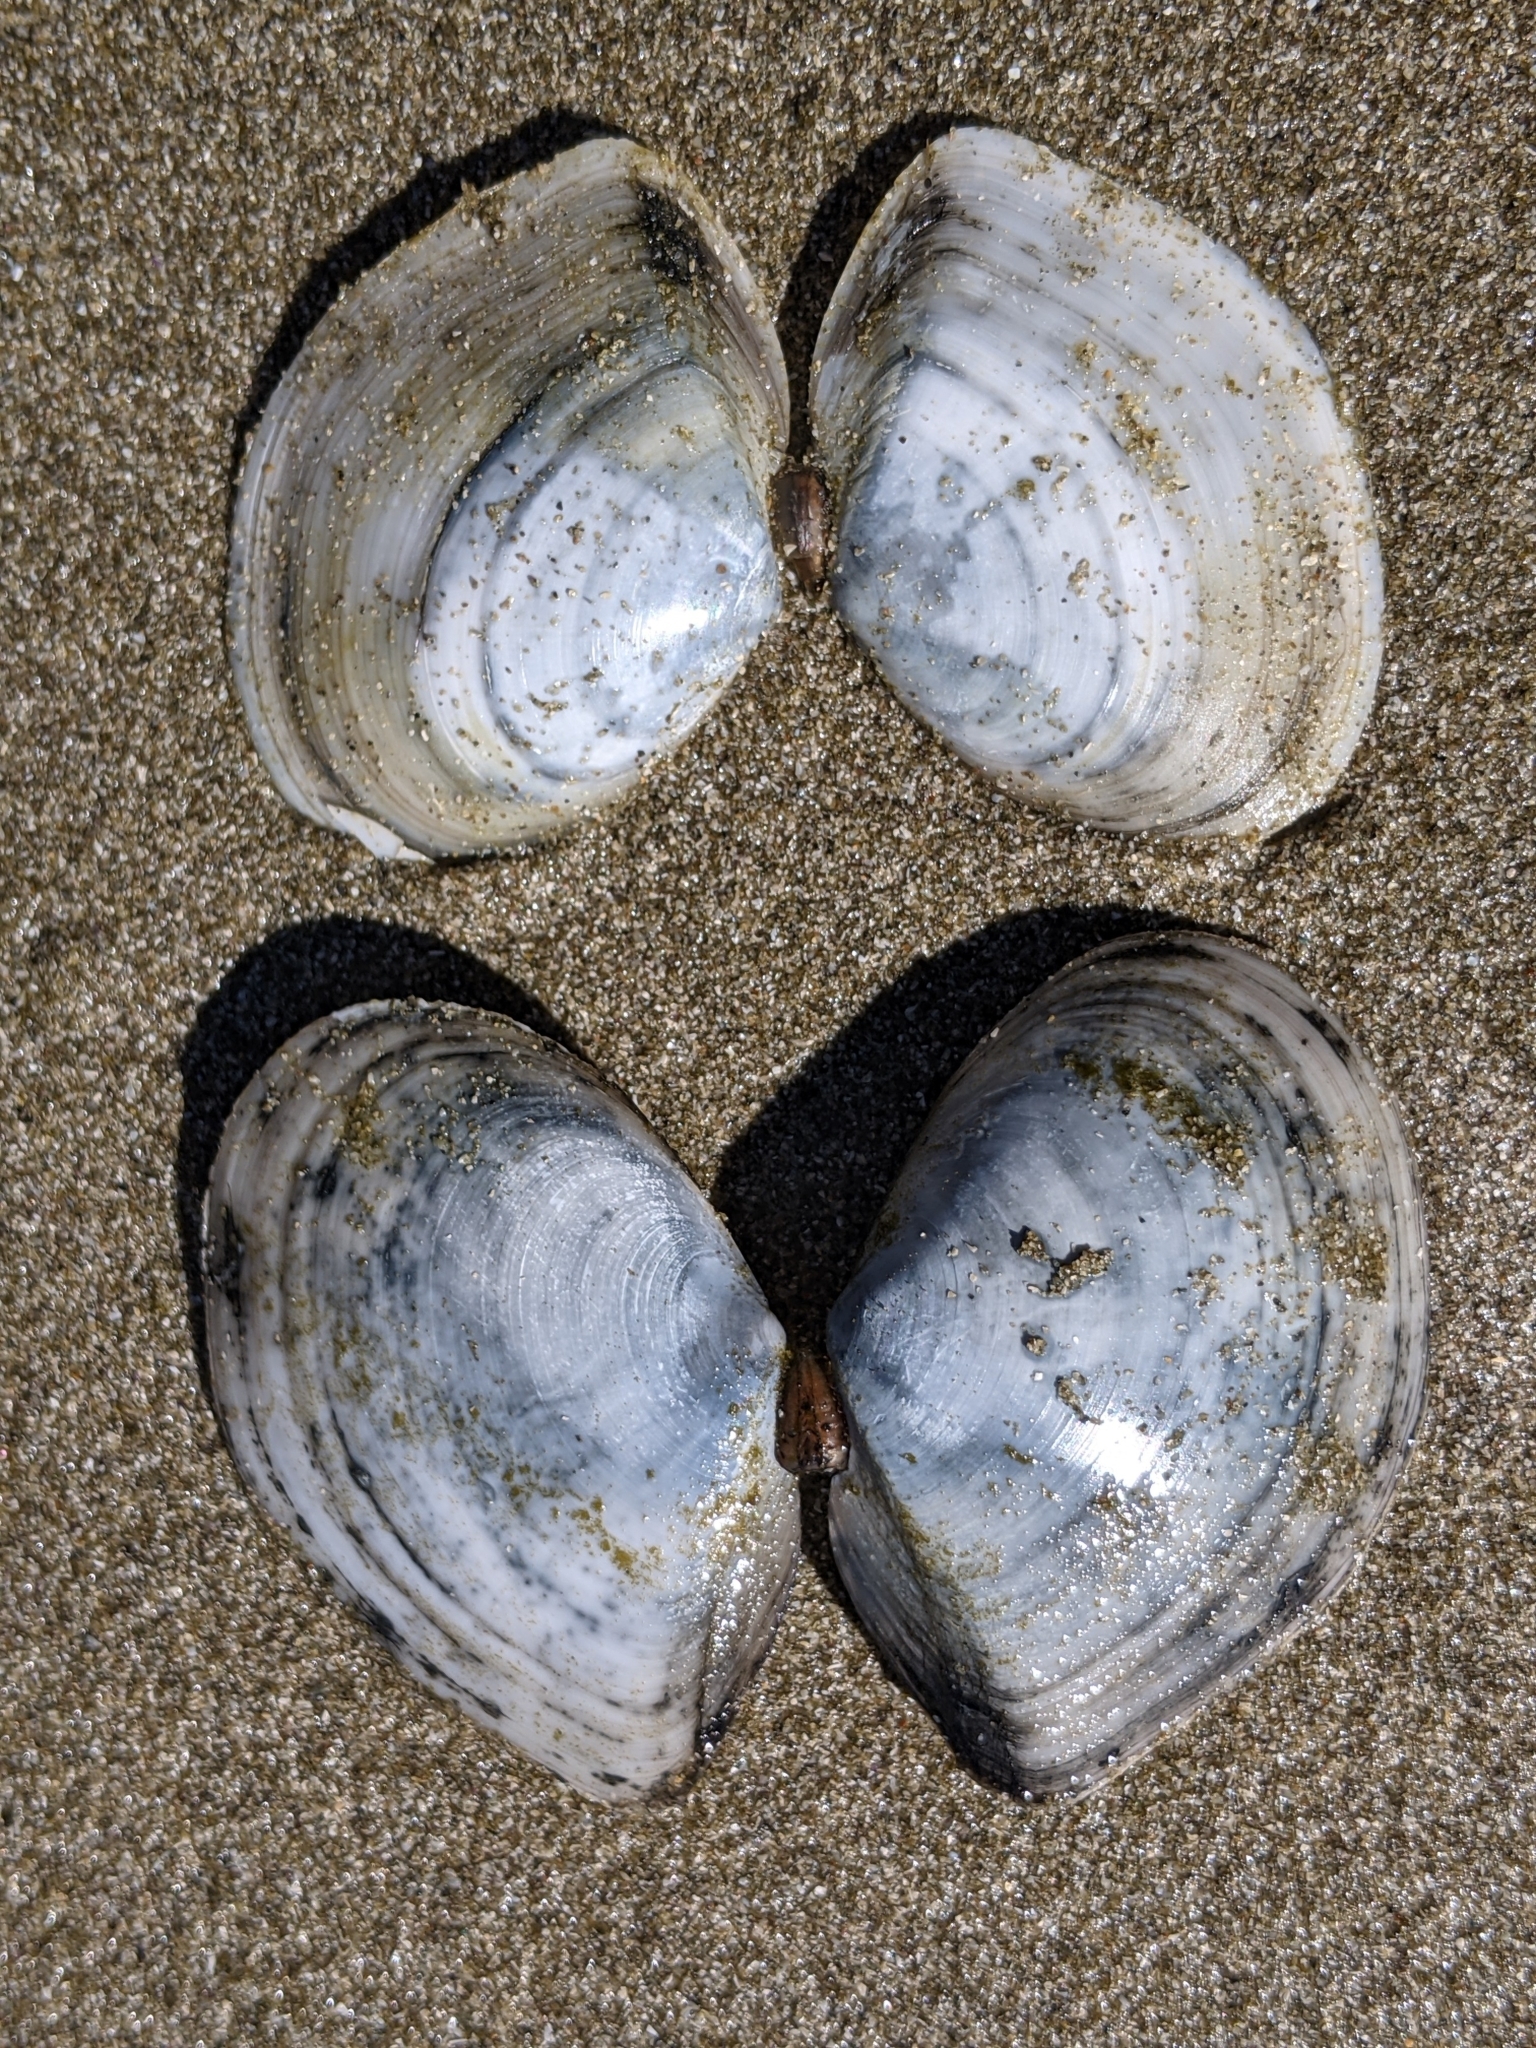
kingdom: Animalia
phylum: Mollusca
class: Bivalvia
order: Cardiida
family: Tellinidae
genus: Rexithaerus
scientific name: Rexithaerus secta
